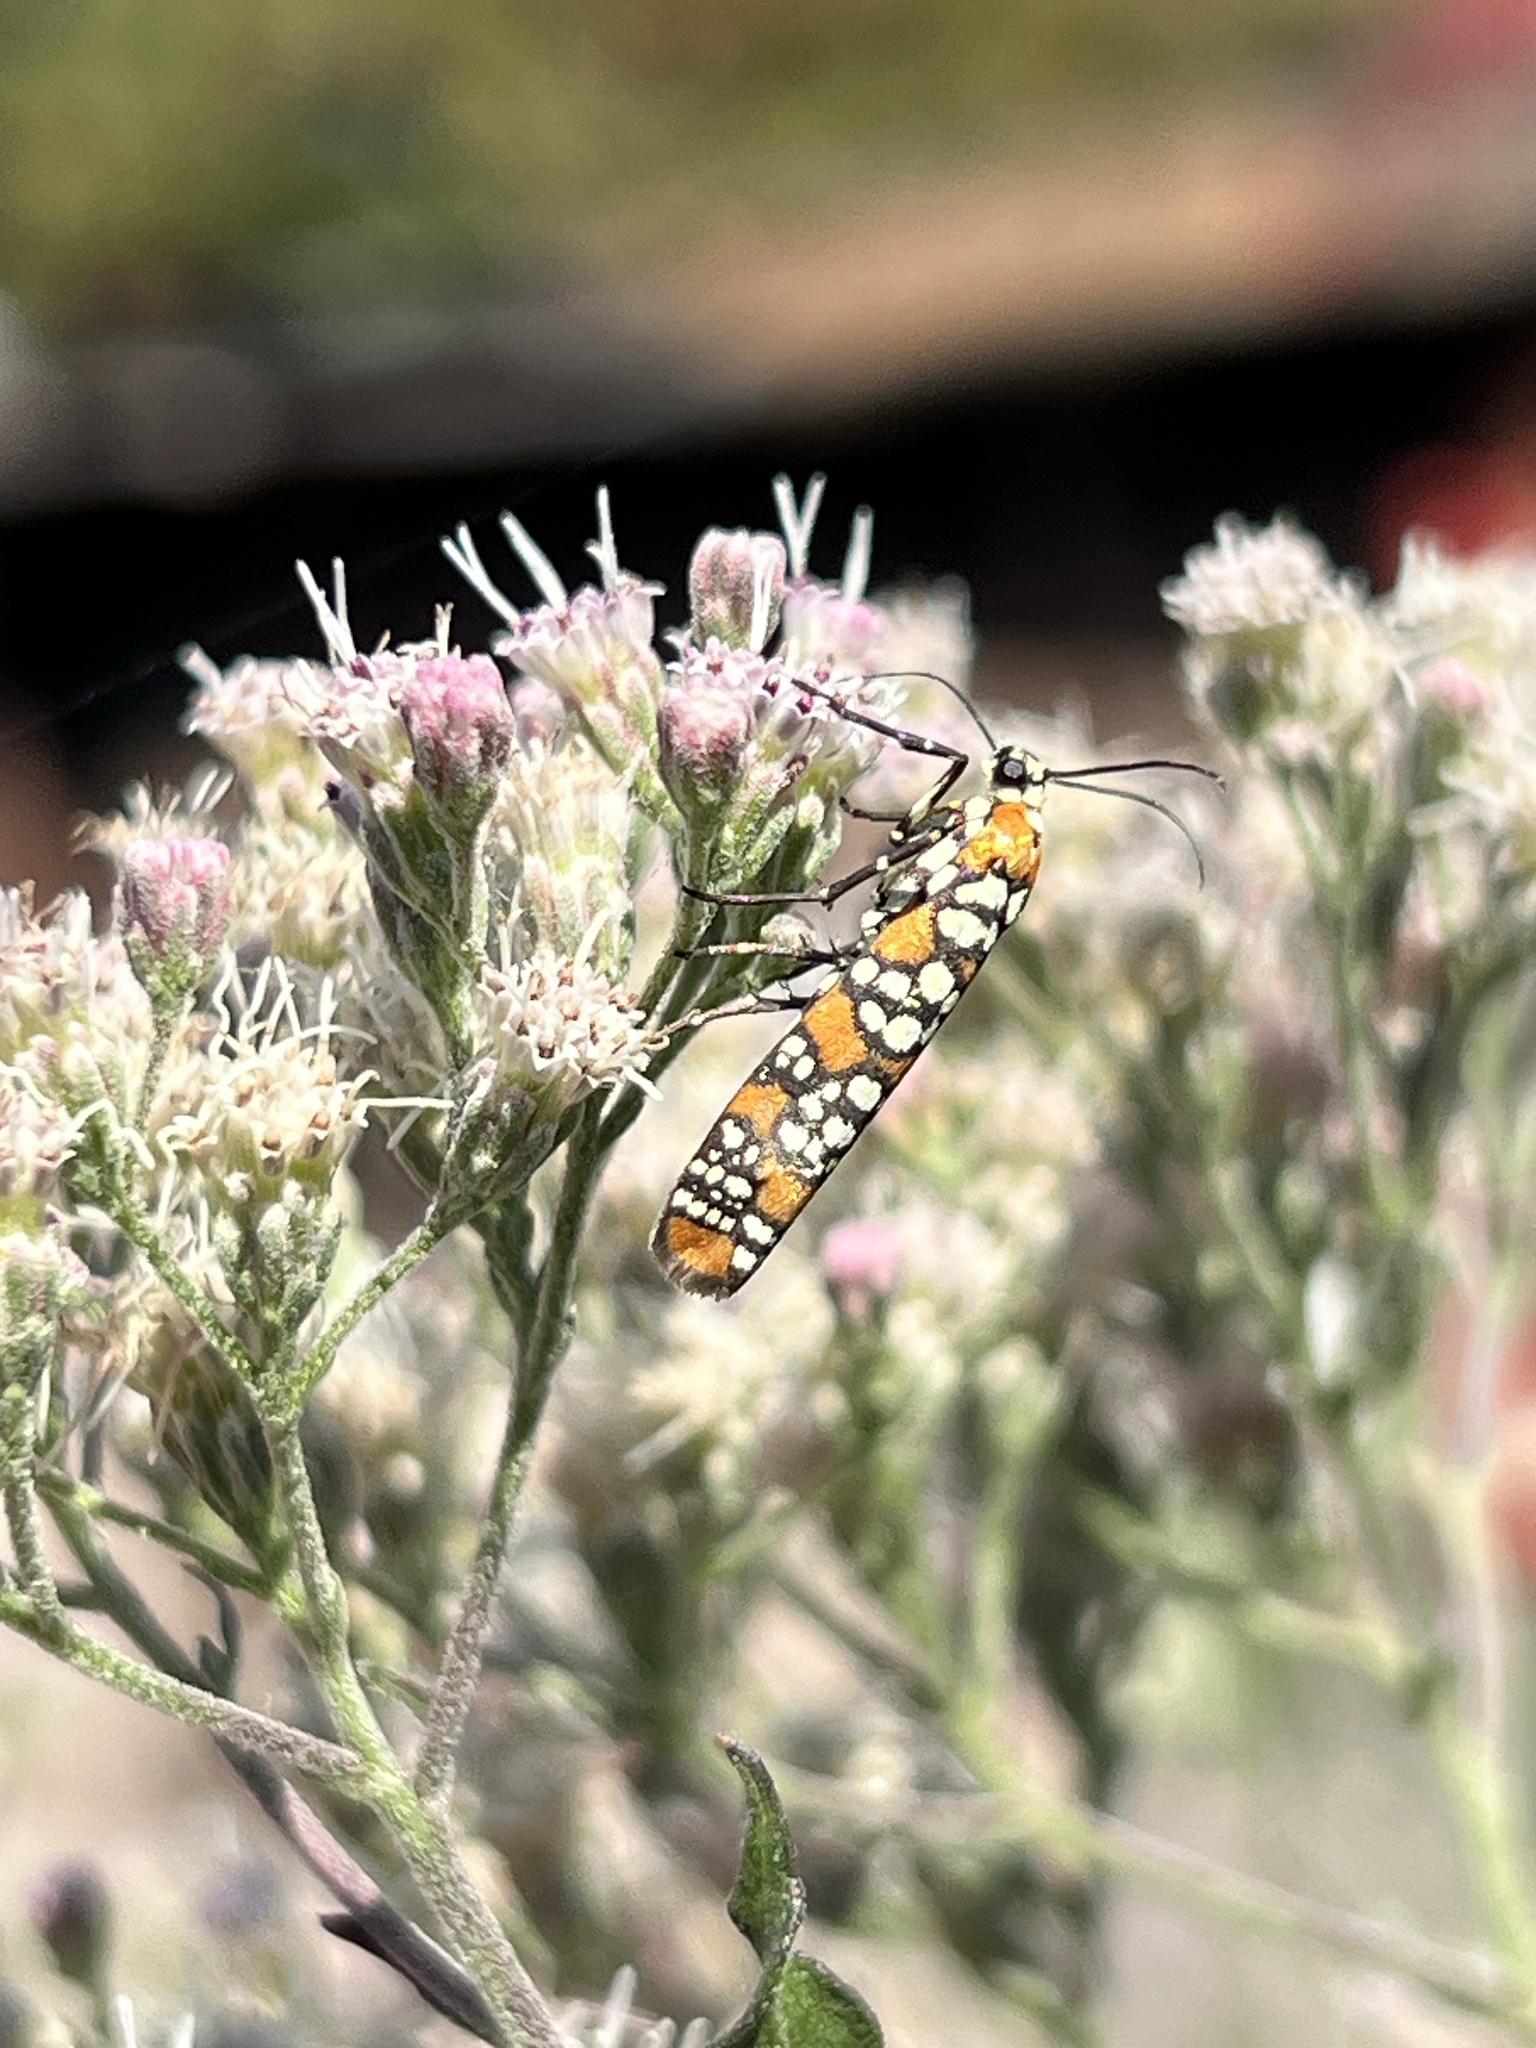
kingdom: Animalia
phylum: Arthropoda
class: Insecta
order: Lepidoptera
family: Attevidae
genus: Atteva
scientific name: Atteva punctella
